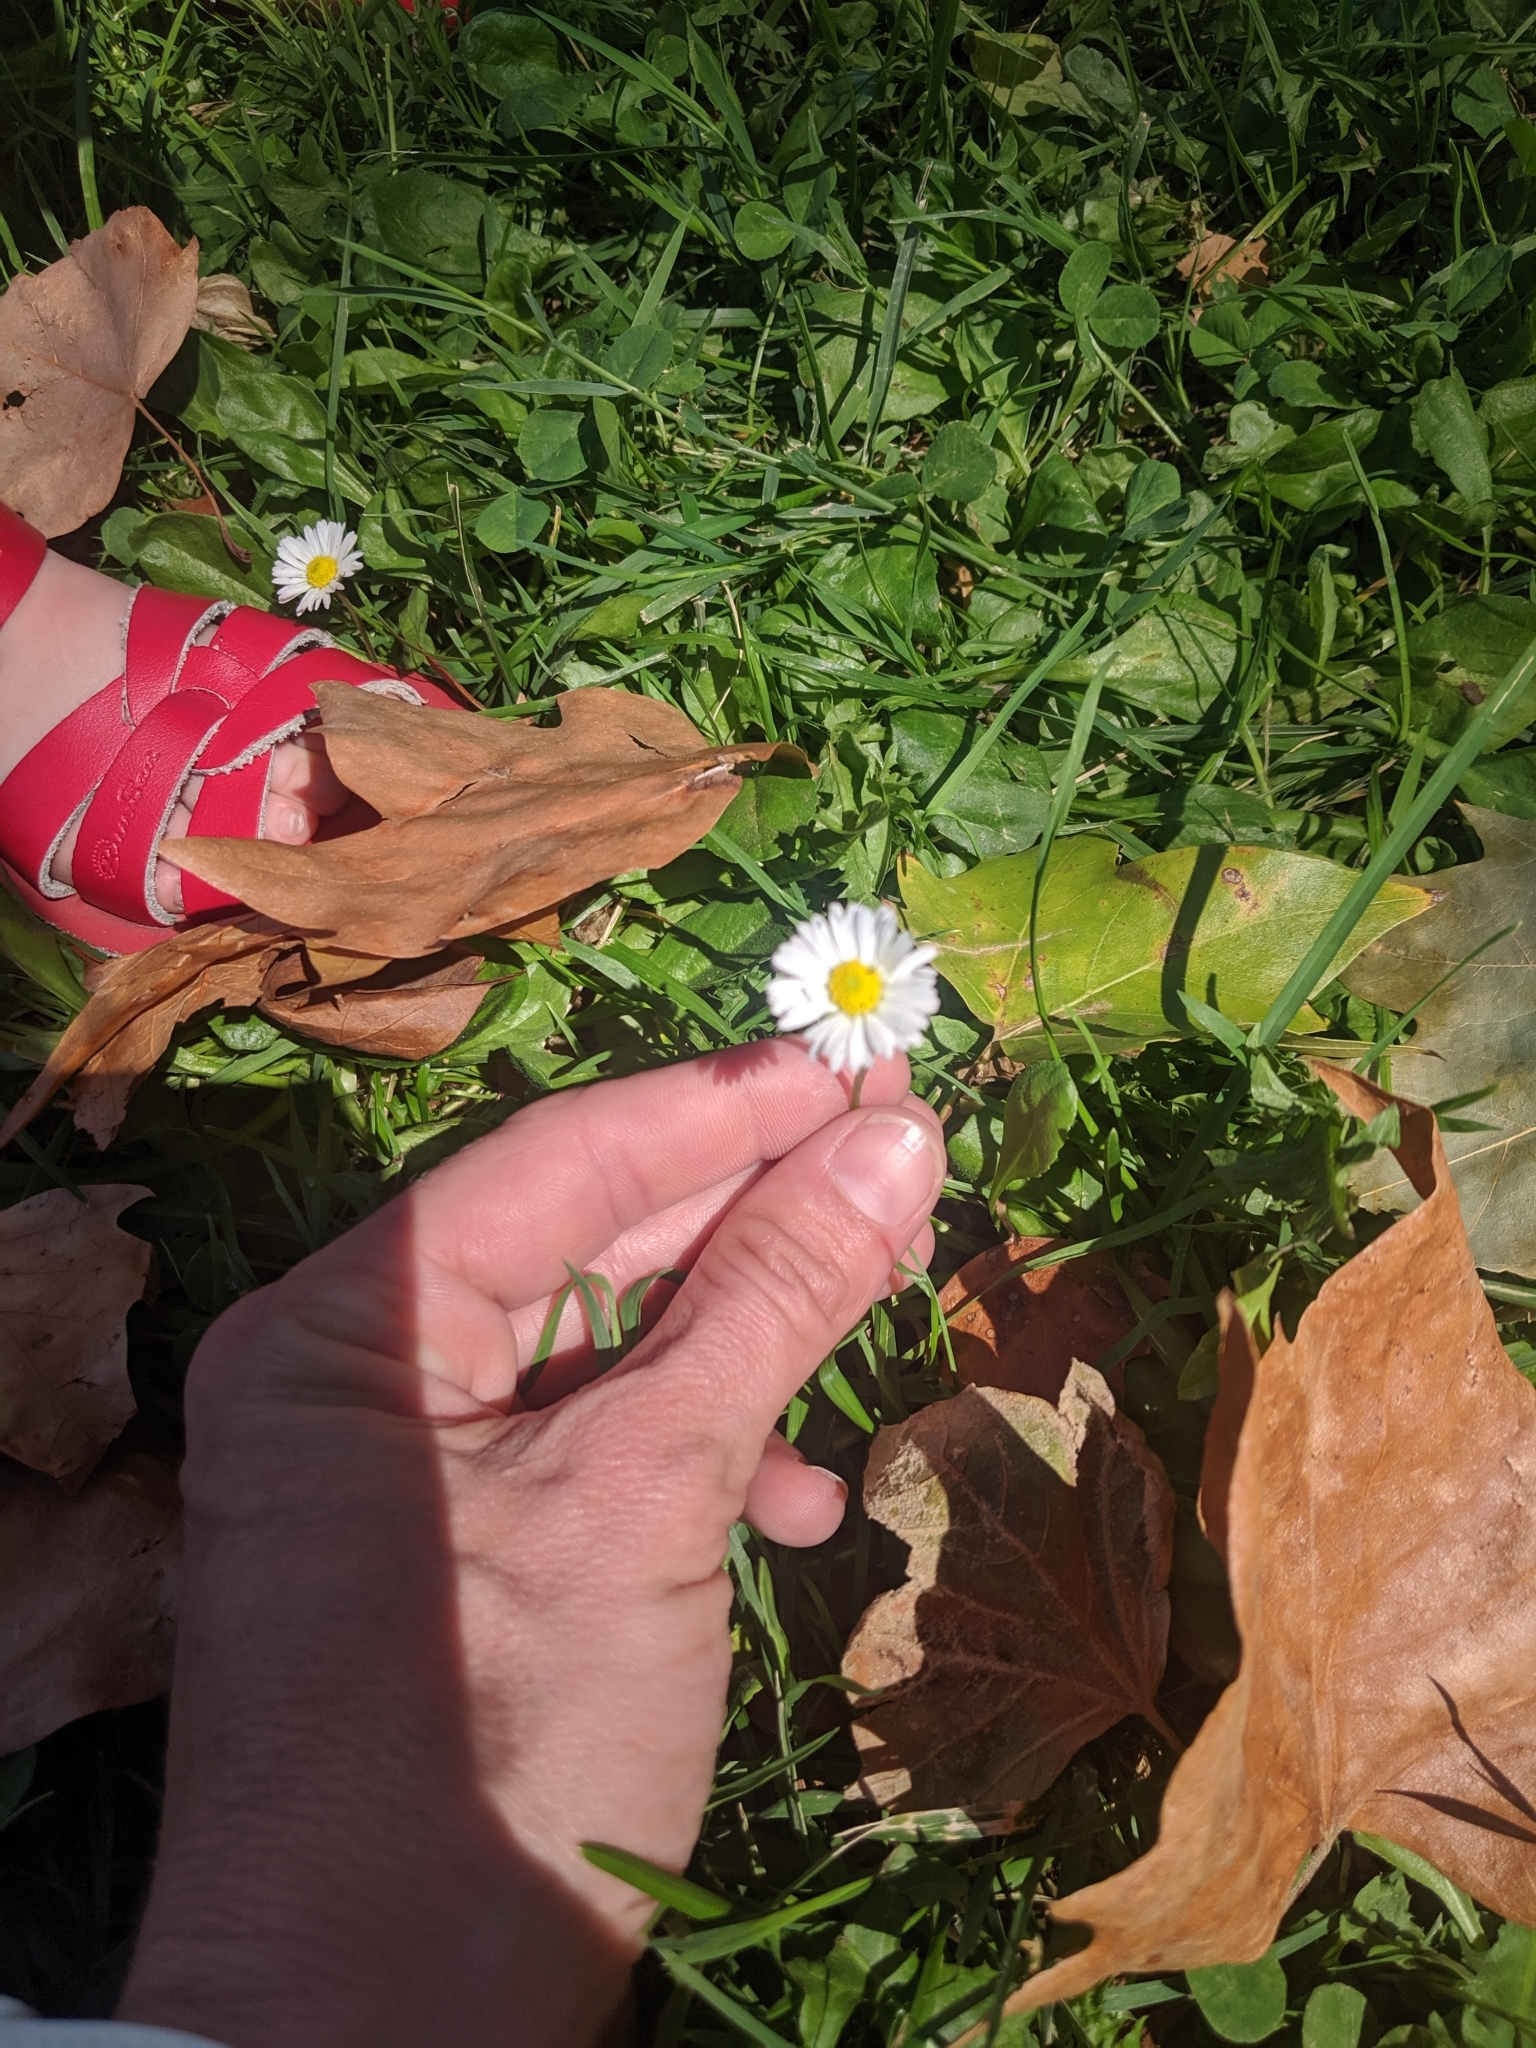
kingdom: Plantae
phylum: Tracheophyta
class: Magnoliopsida
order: Asterales
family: Asteraceae
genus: Bellis
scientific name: Bellis perennis
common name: Lawndaisy
